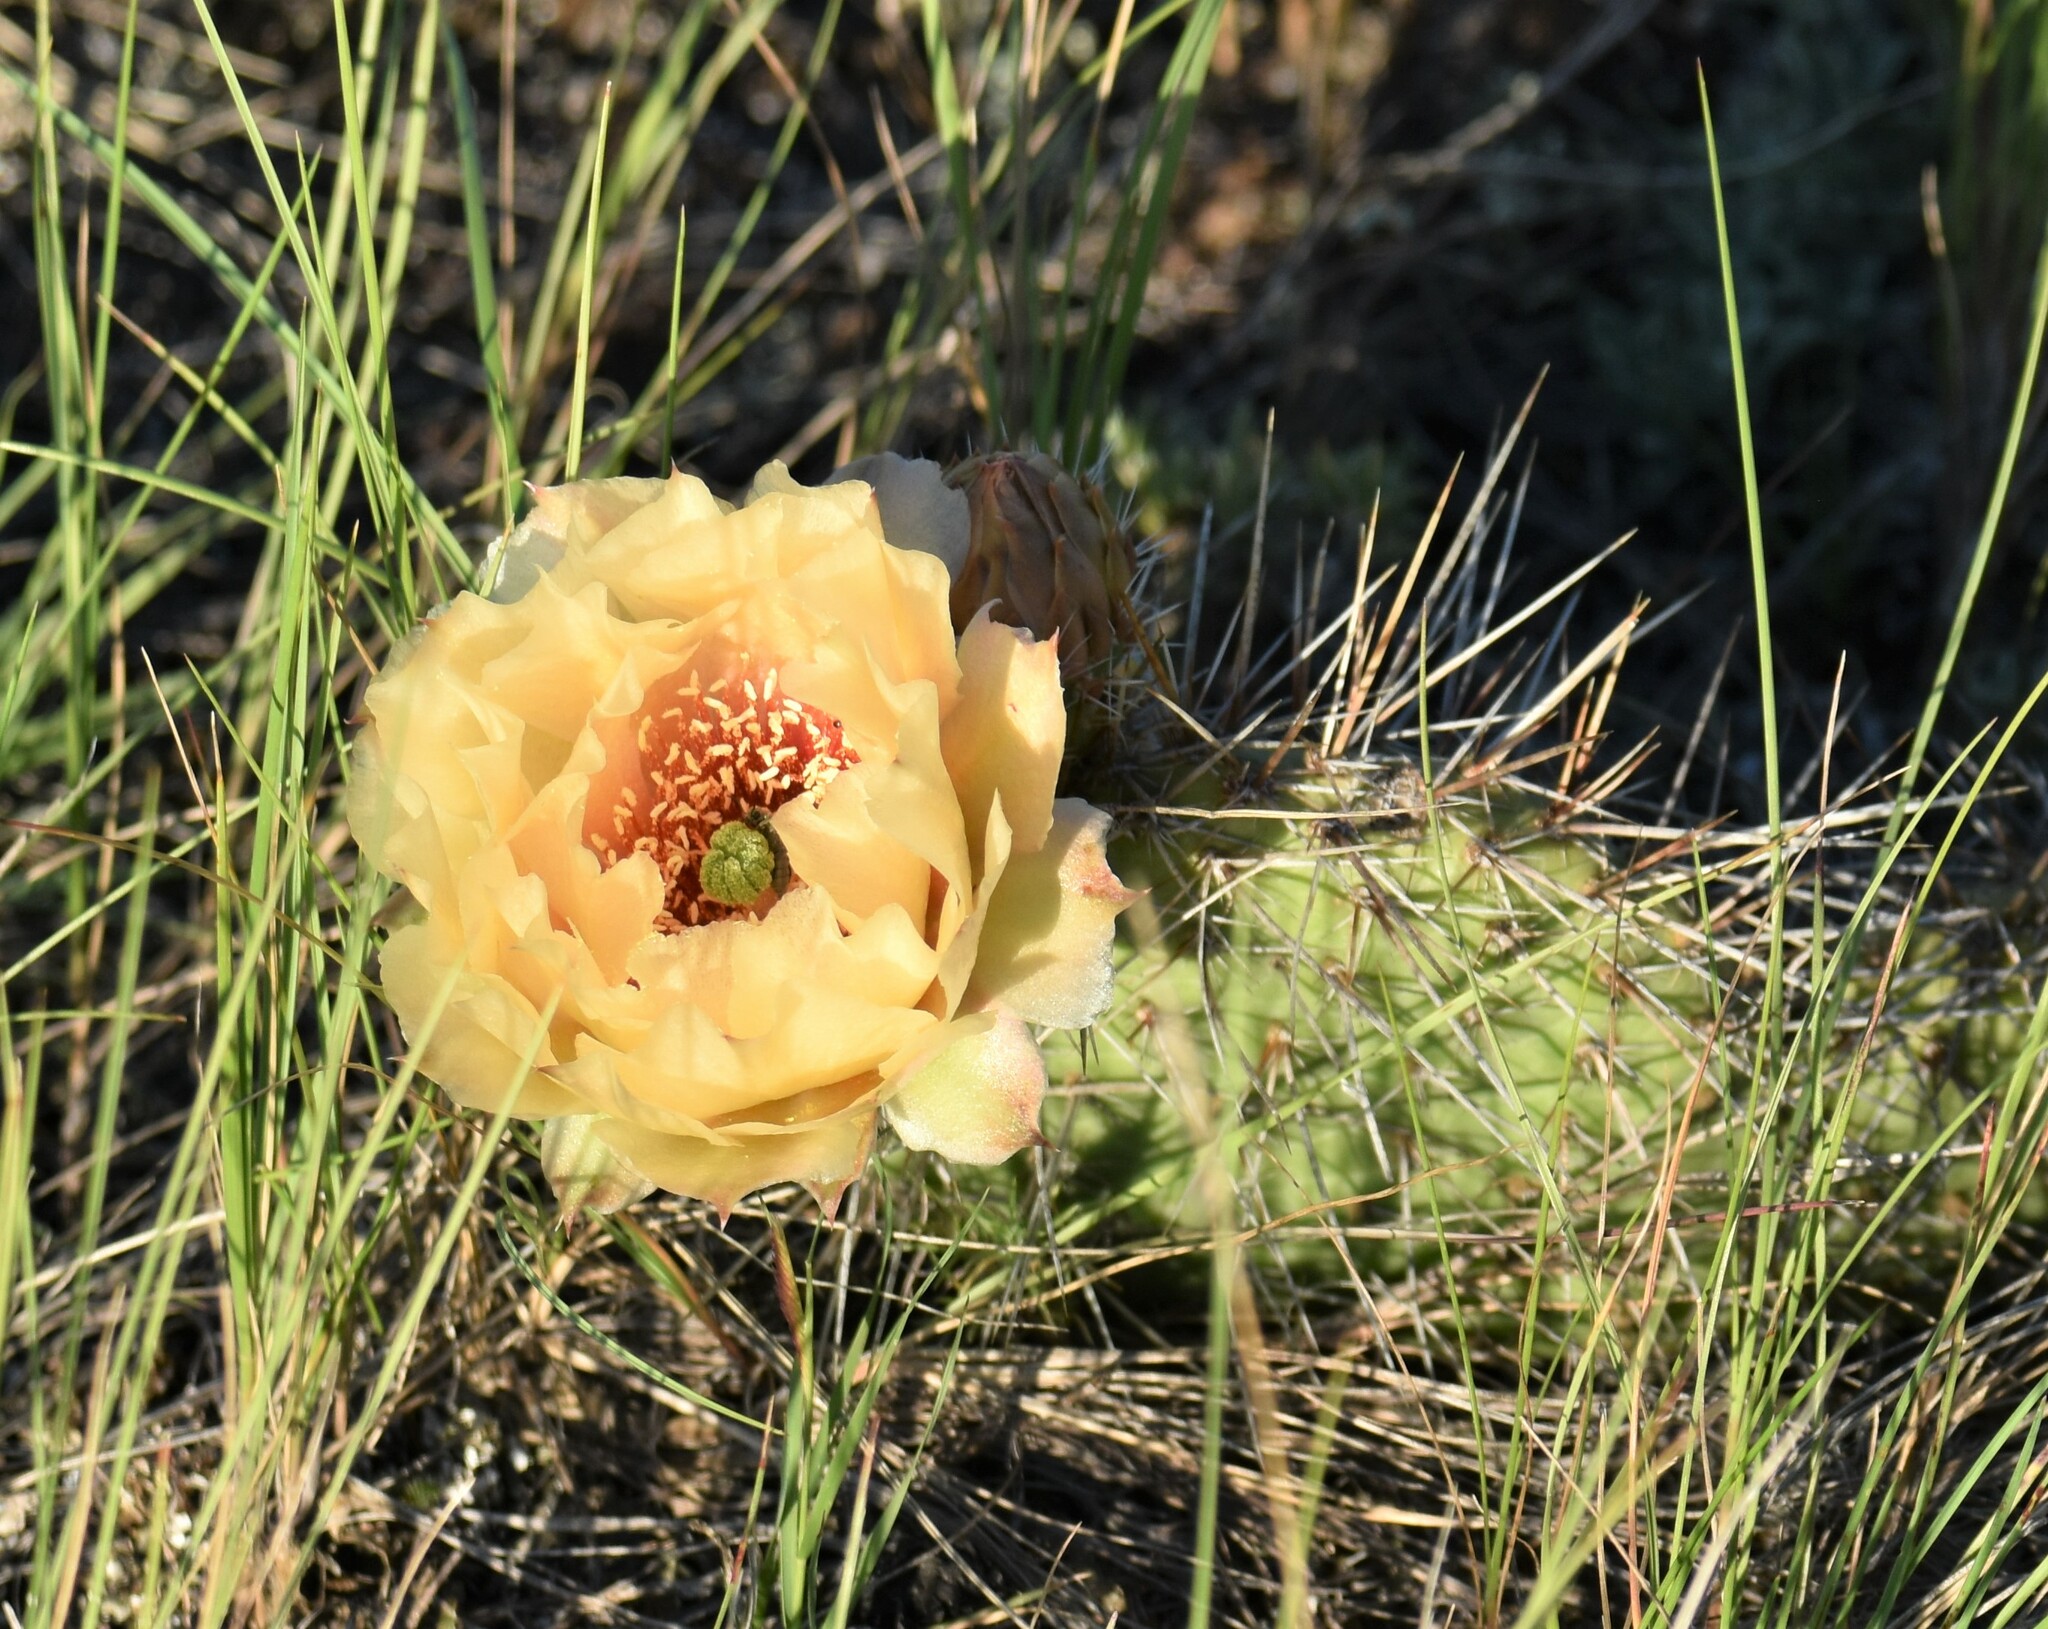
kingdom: Plantae
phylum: Tracheophyta
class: Magnoliopsida
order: Caryophyllales
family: Cactaceae
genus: Opuntia
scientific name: Opuntia polyacantha
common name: Plains prickly-pear
